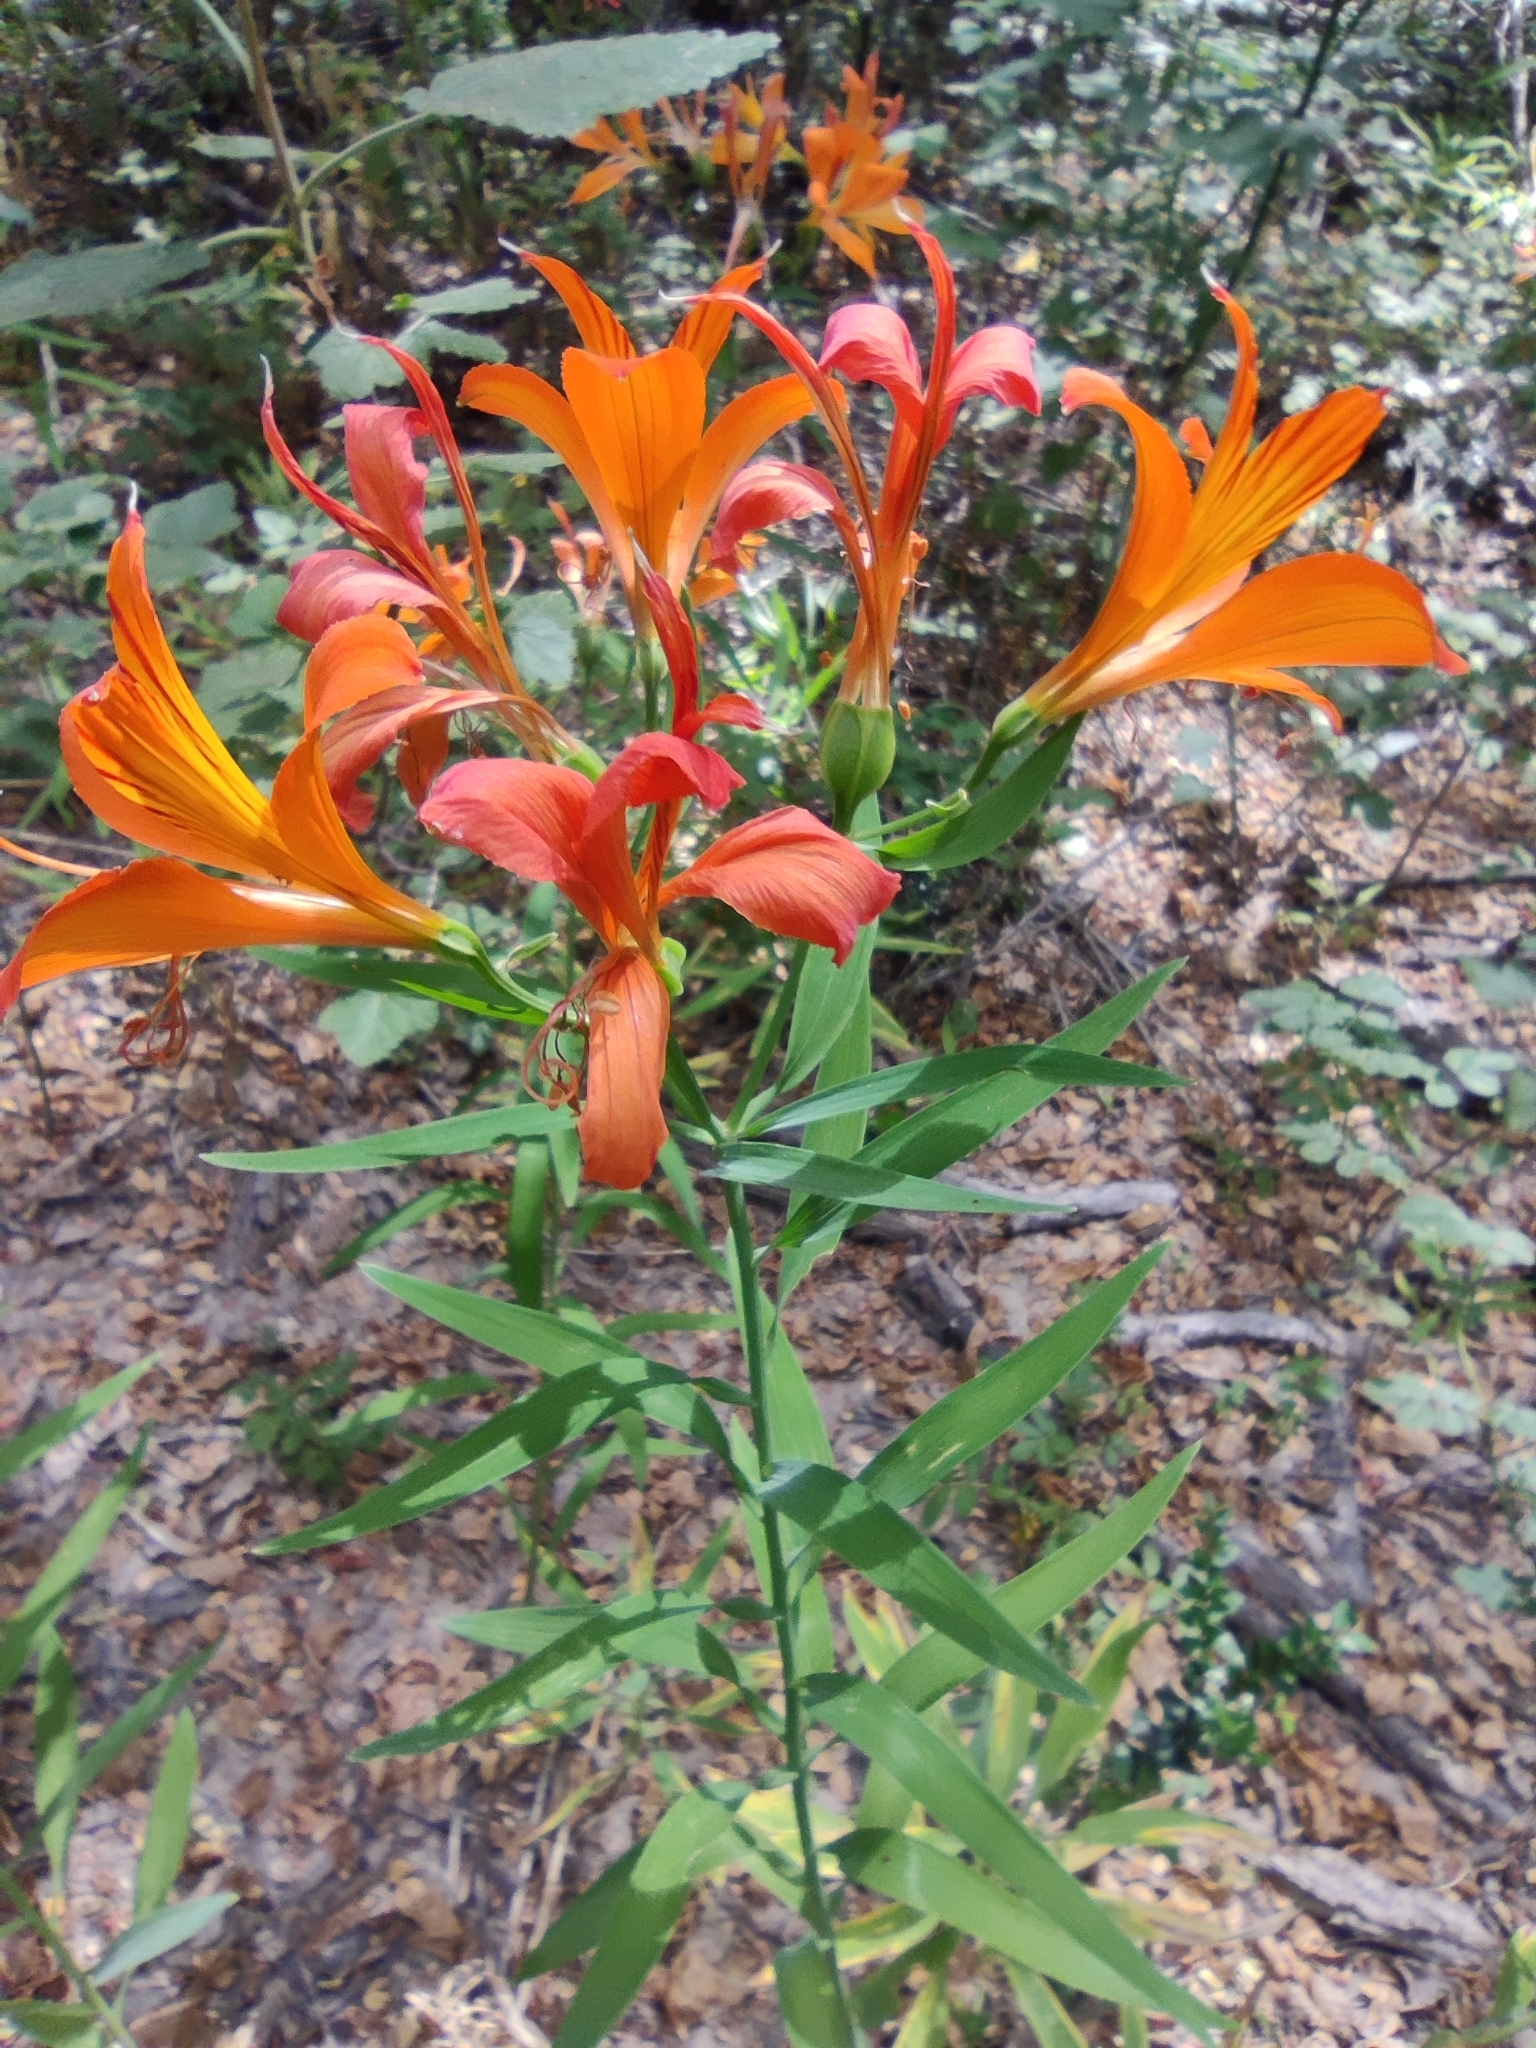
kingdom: Plantae
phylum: Tracheophyta
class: Liliopsida
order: Liliales
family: Alstroemeriaceae
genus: Alstroemeria
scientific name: Alstroemeria aurea
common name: Peruvian lily
